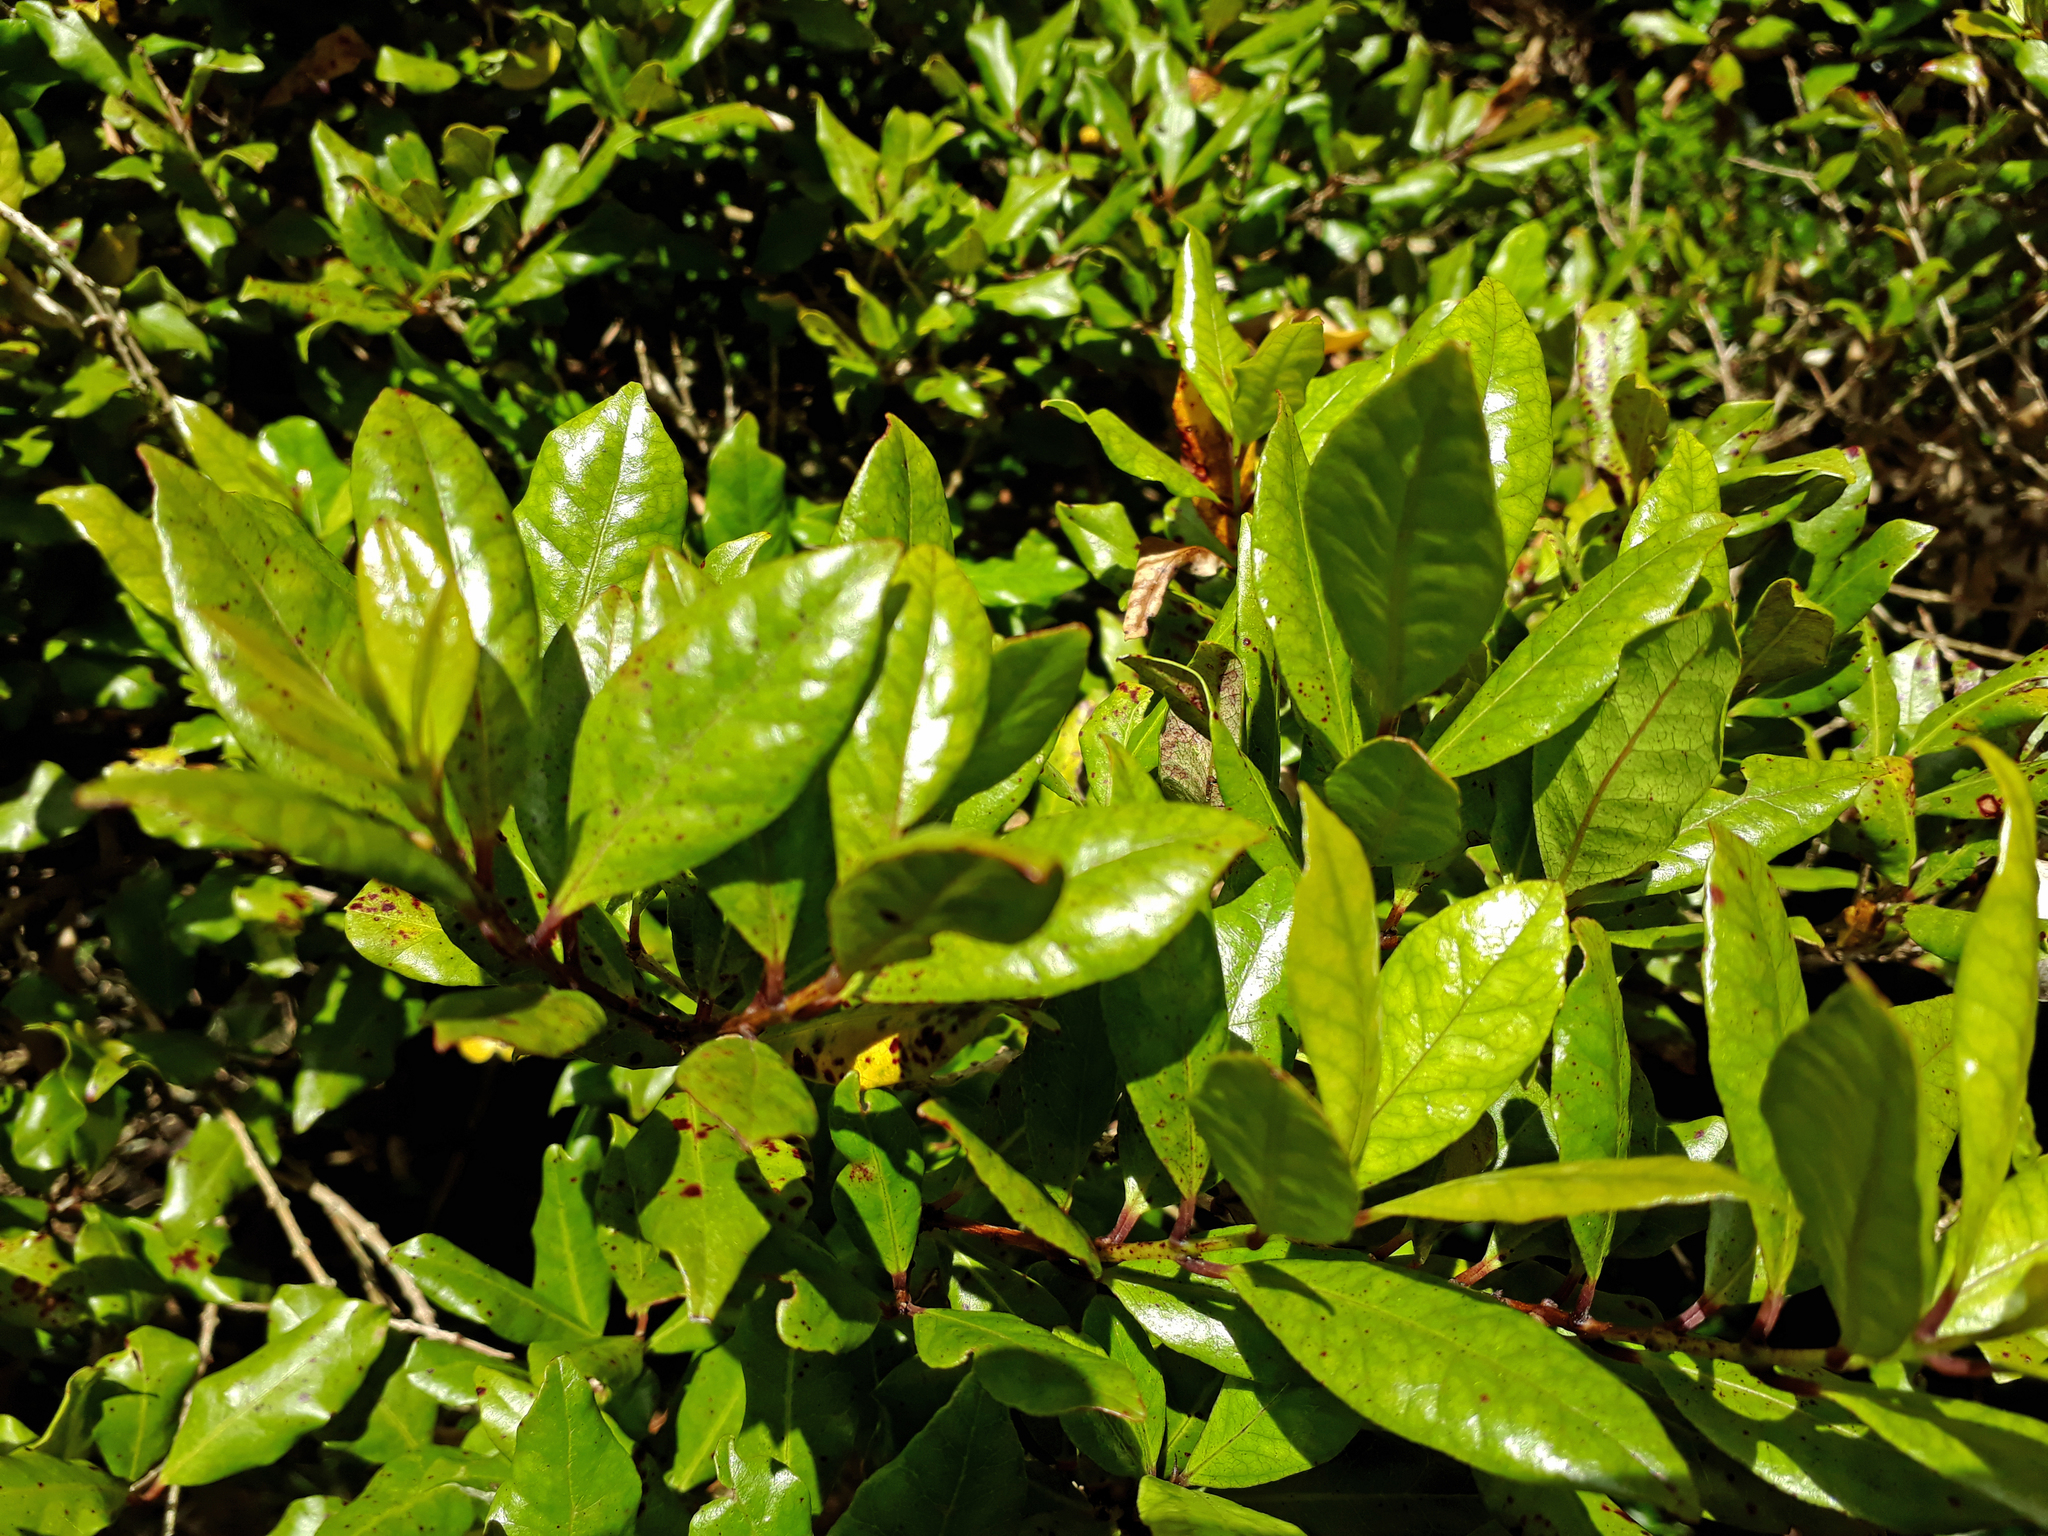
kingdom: Plantae
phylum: Tracheophyta
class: Magnoliopsida
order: Myrtales
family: Myrtaceae
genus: Syzygium
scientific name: Syzygium maire
